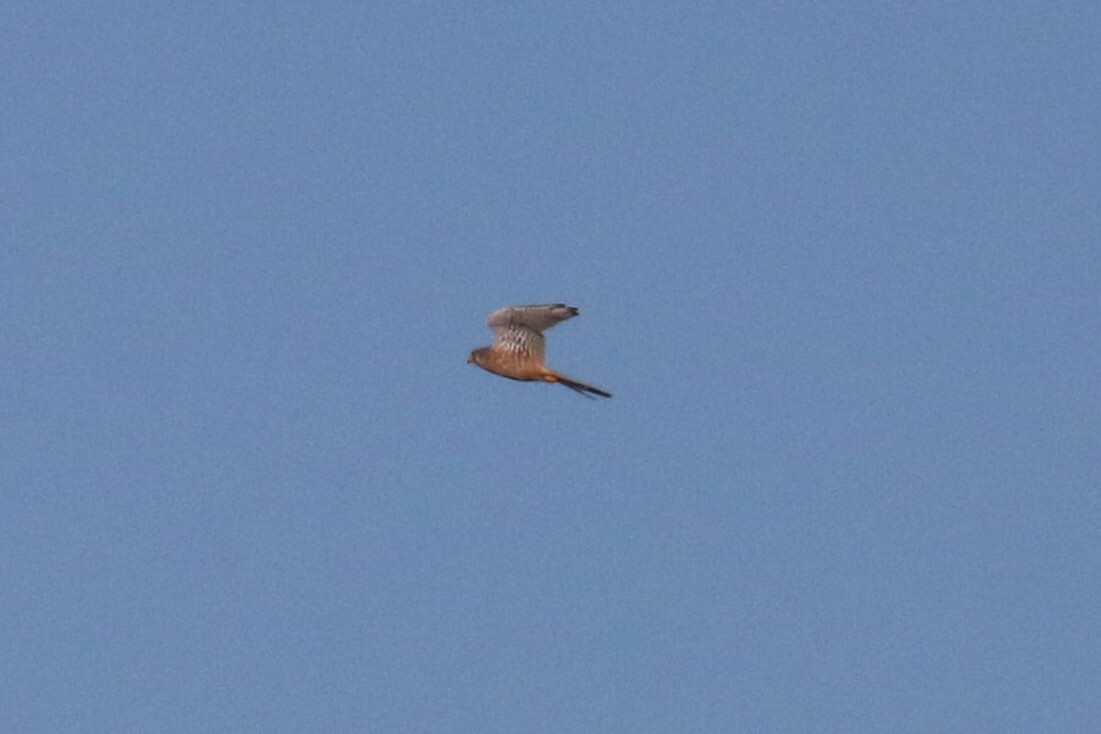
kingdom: Animalia
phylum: Chordata
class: Aves
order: Falconiformes
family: Falconidae
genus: Falco
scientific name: Falco tinnunculus
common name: Common kestrel
